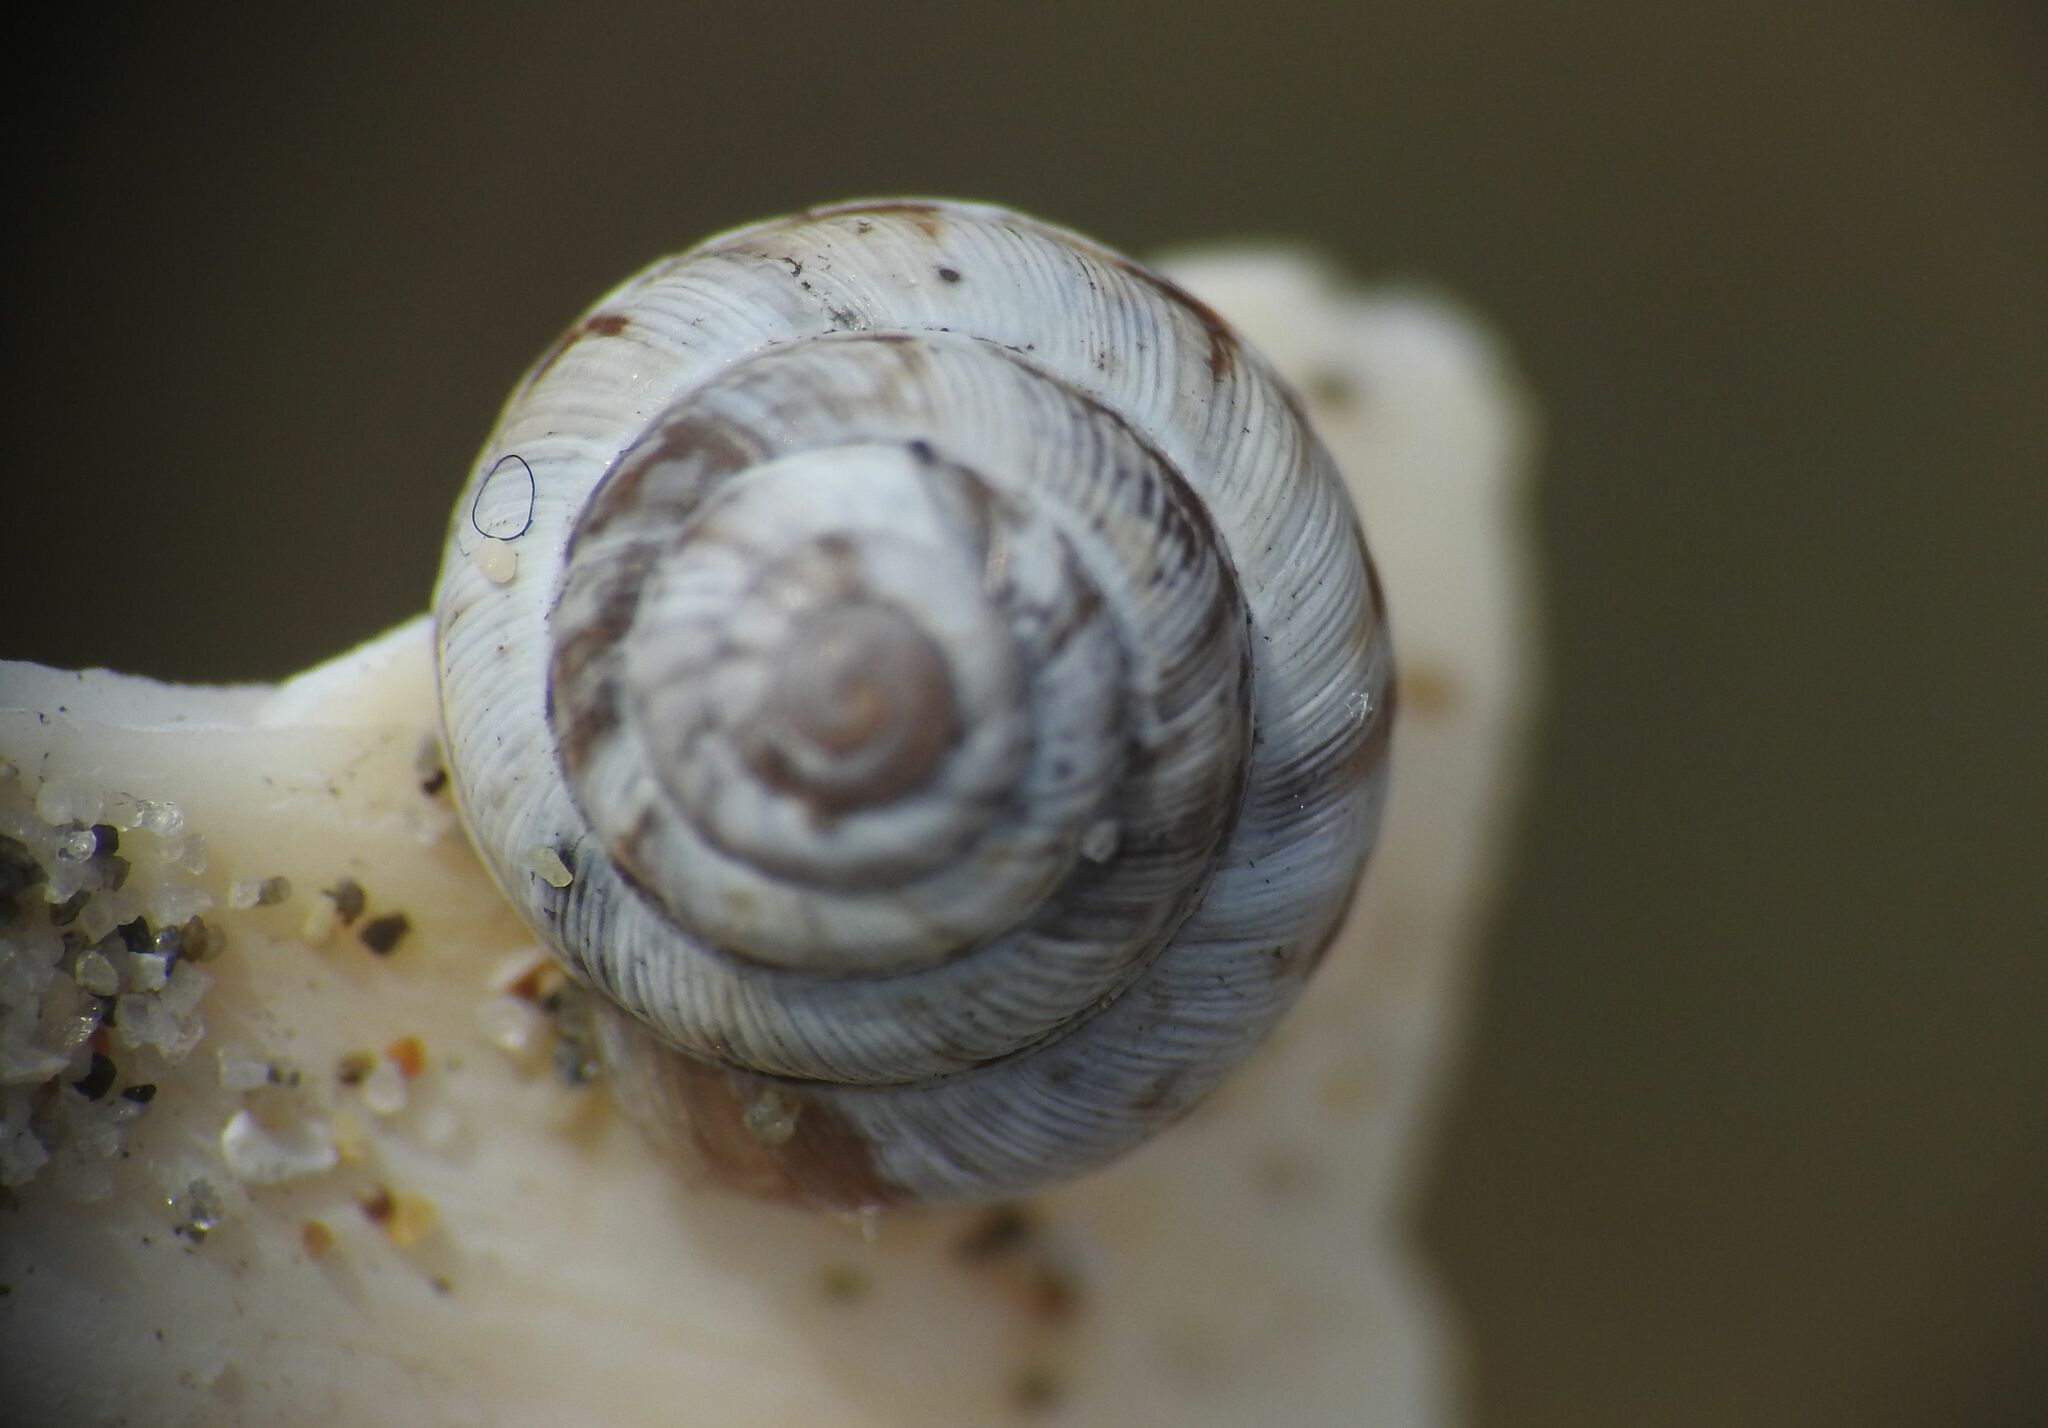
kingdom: Animalia
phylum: Mollusca
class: Gastropoda
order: Stylommatophora
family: Geomitridae
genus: Trochoidea
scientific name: Trochoidea trochoides
